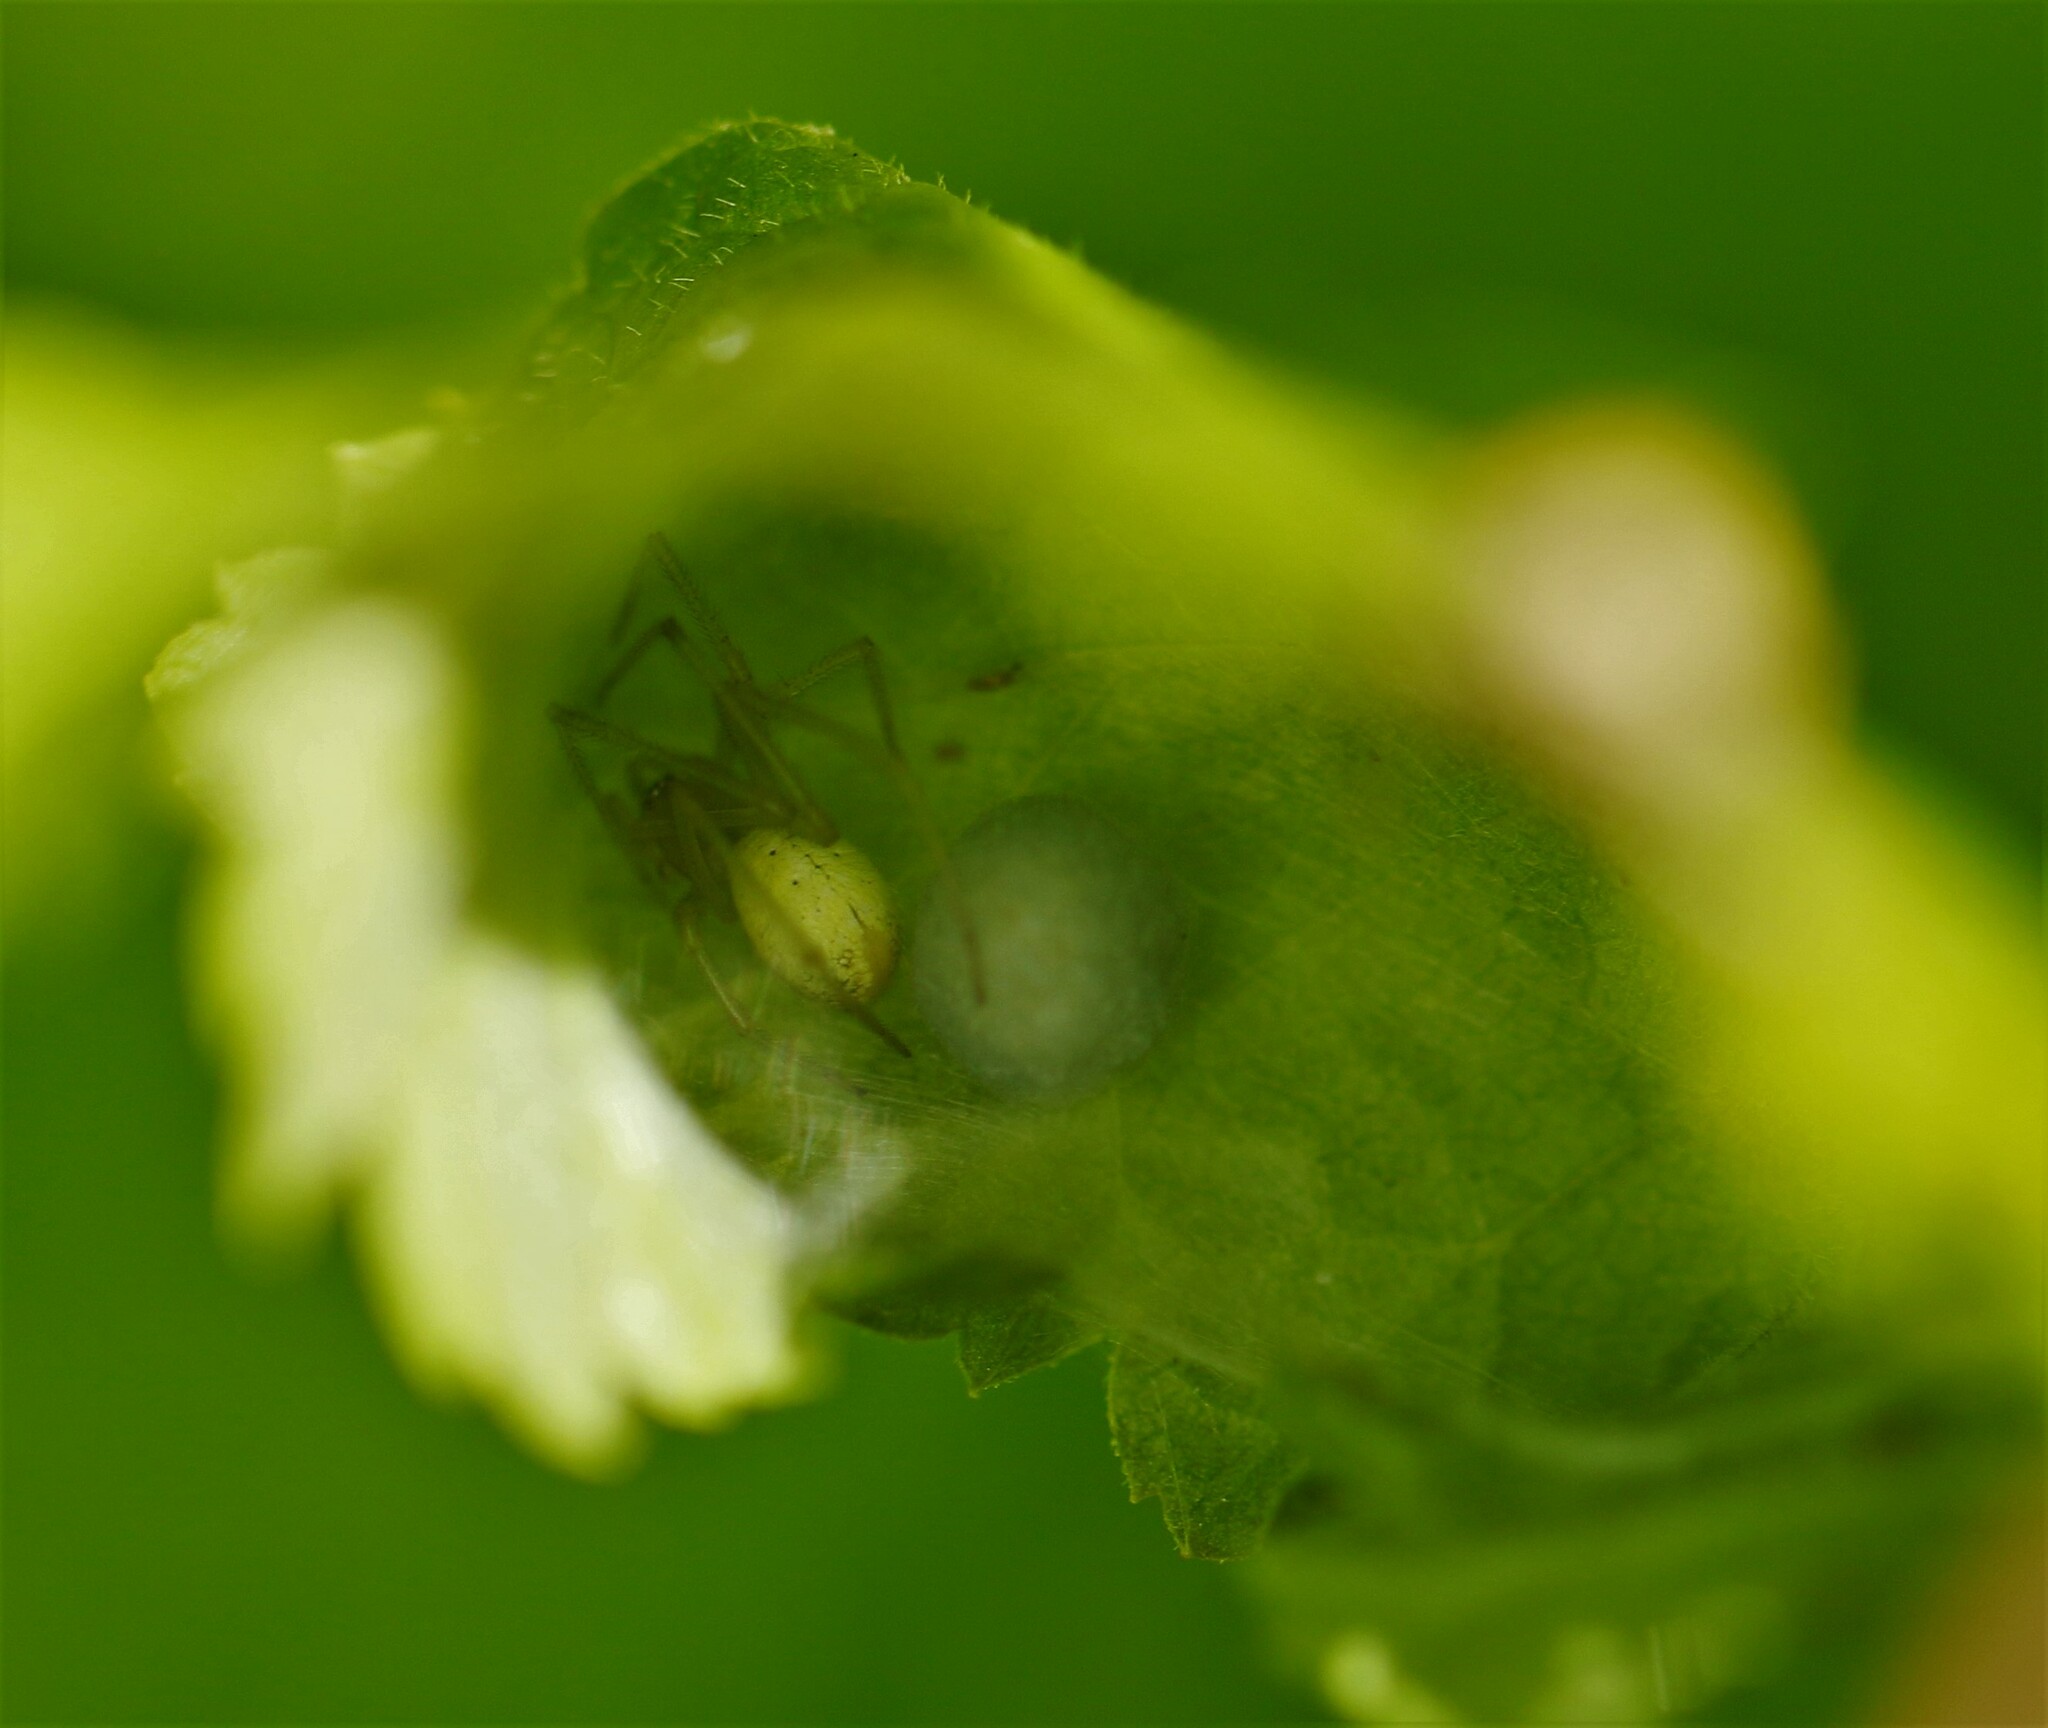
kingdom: Animalia
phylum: Arthropoda
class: Arachnida
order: Araneae
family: Theridiidae
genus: Enoplognatha
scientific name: Enoplognatha ovata
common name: Common candy-striped spider
